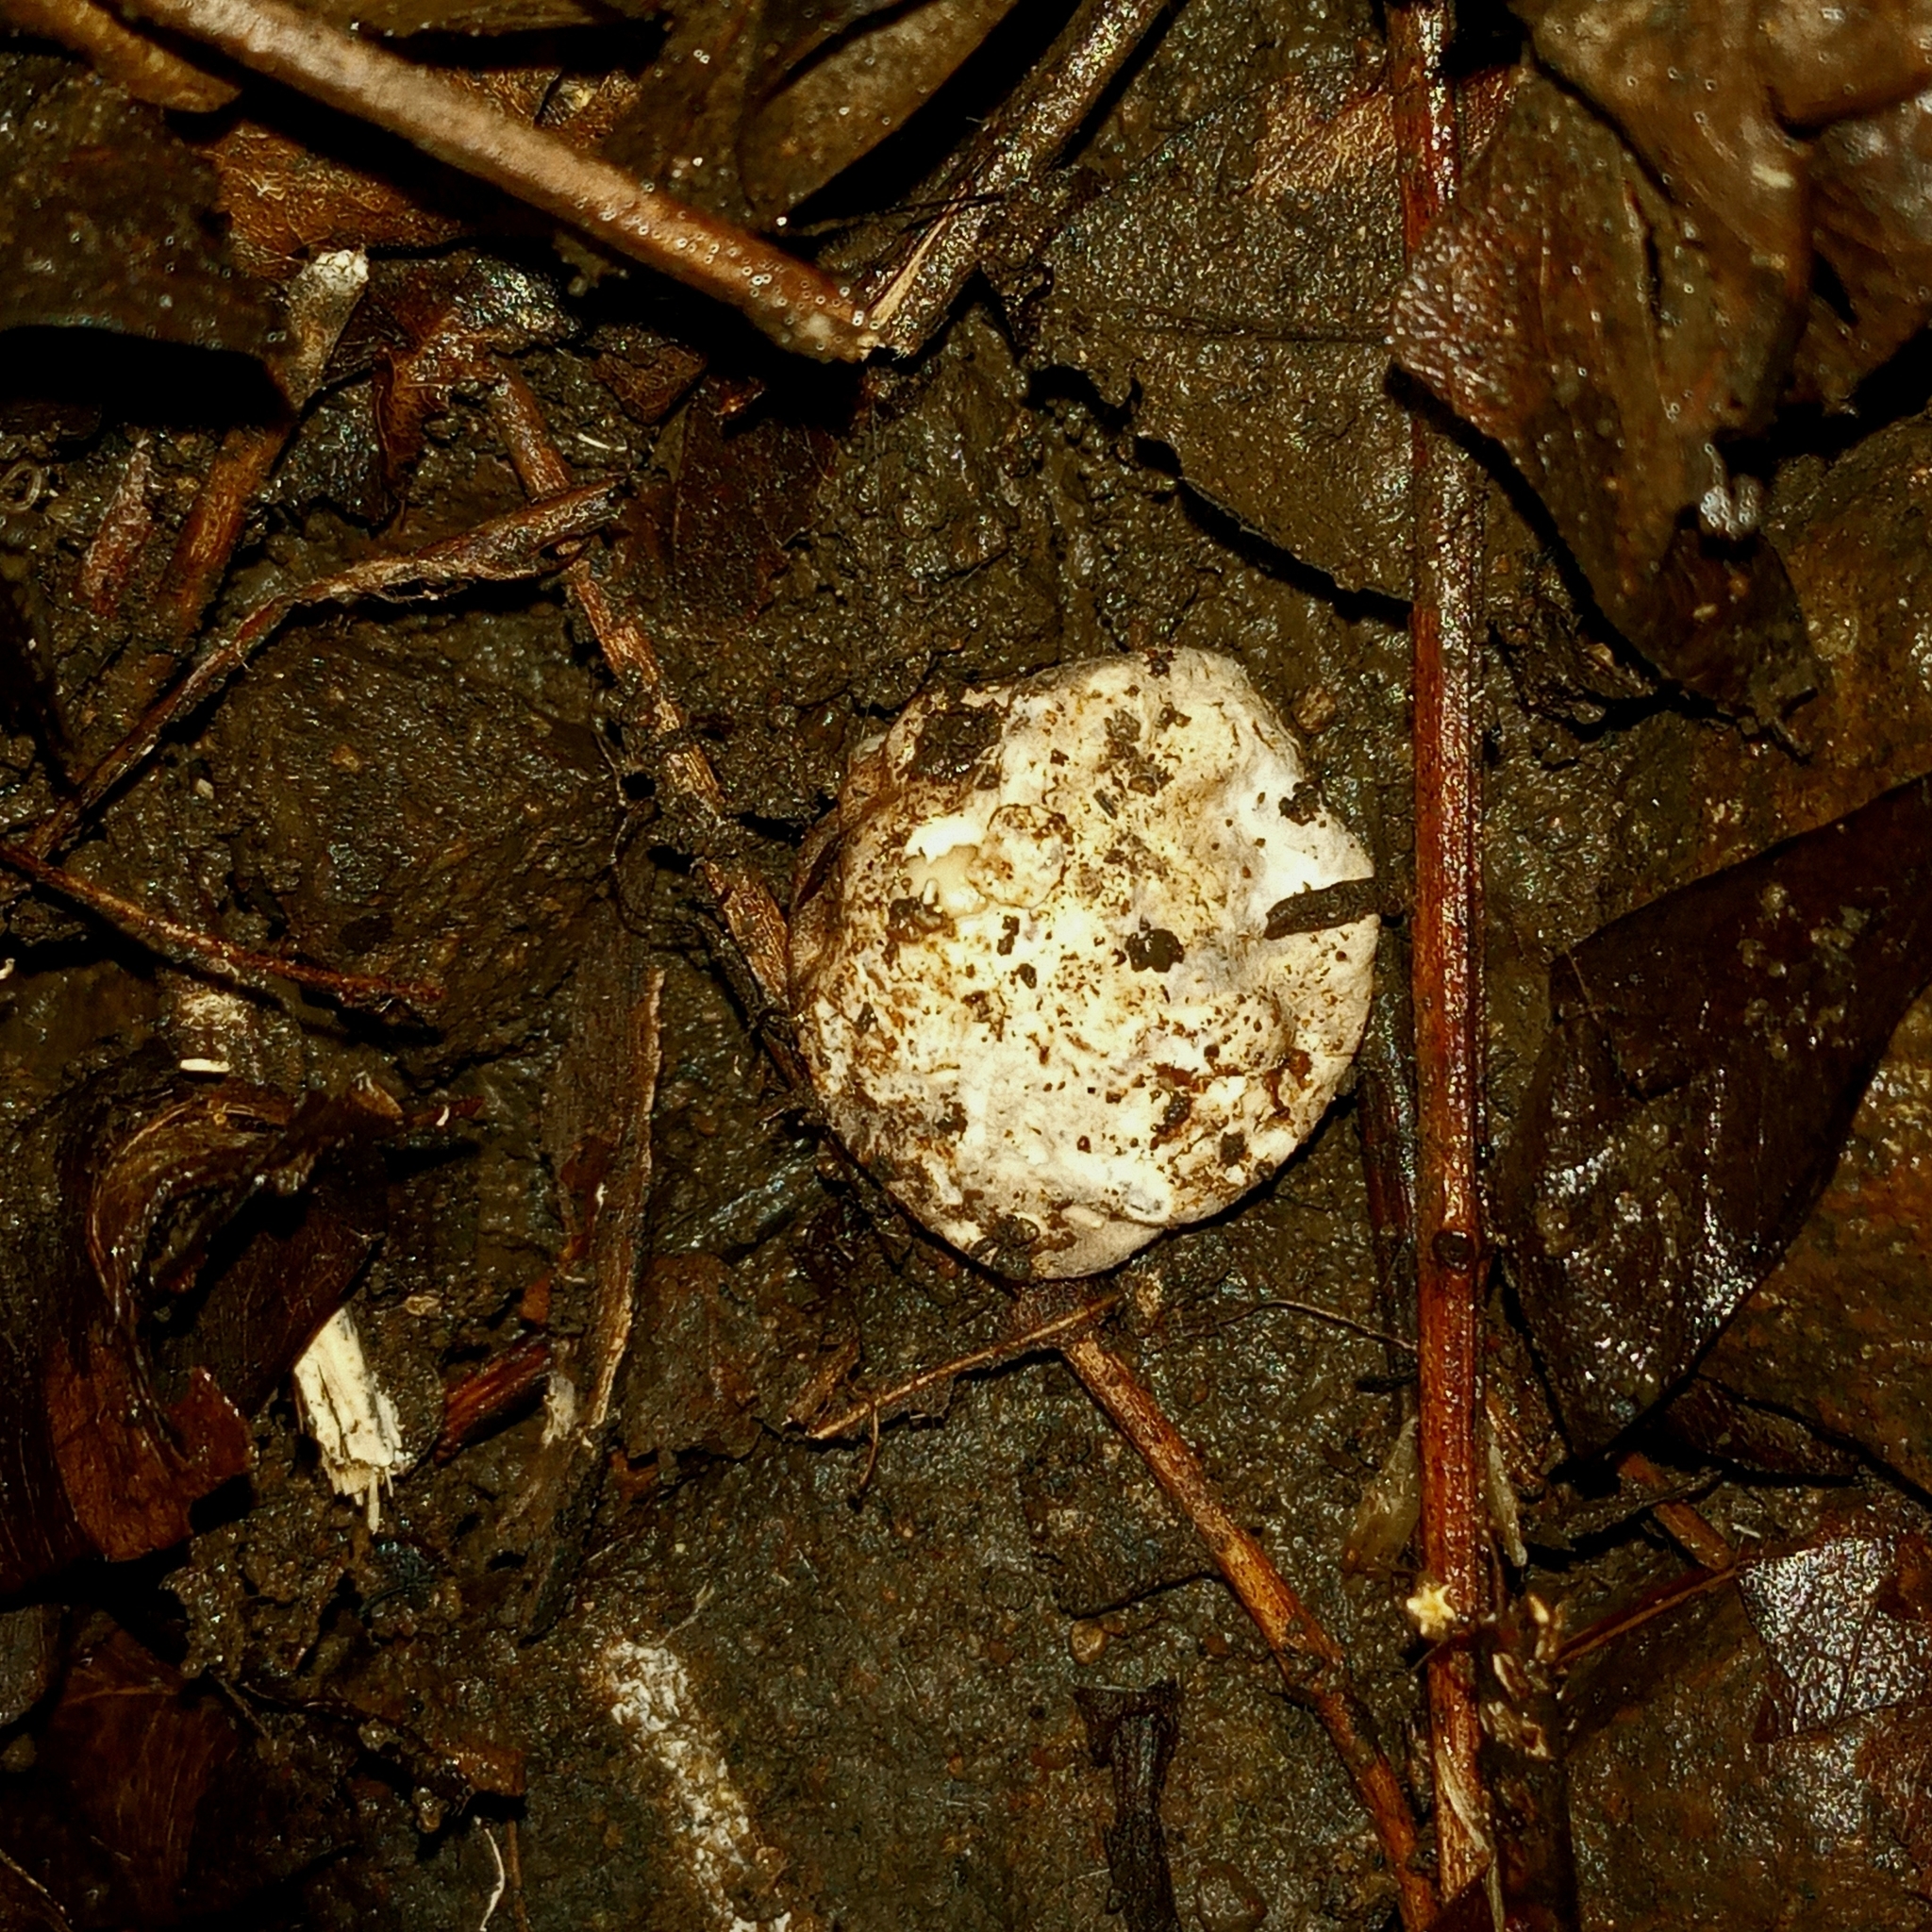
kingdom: Fungi
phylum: Basidiomycota
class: Agaricomycetes
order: Phallales
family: Phallaceae
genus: Phallus
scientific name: Phallus merulinus
